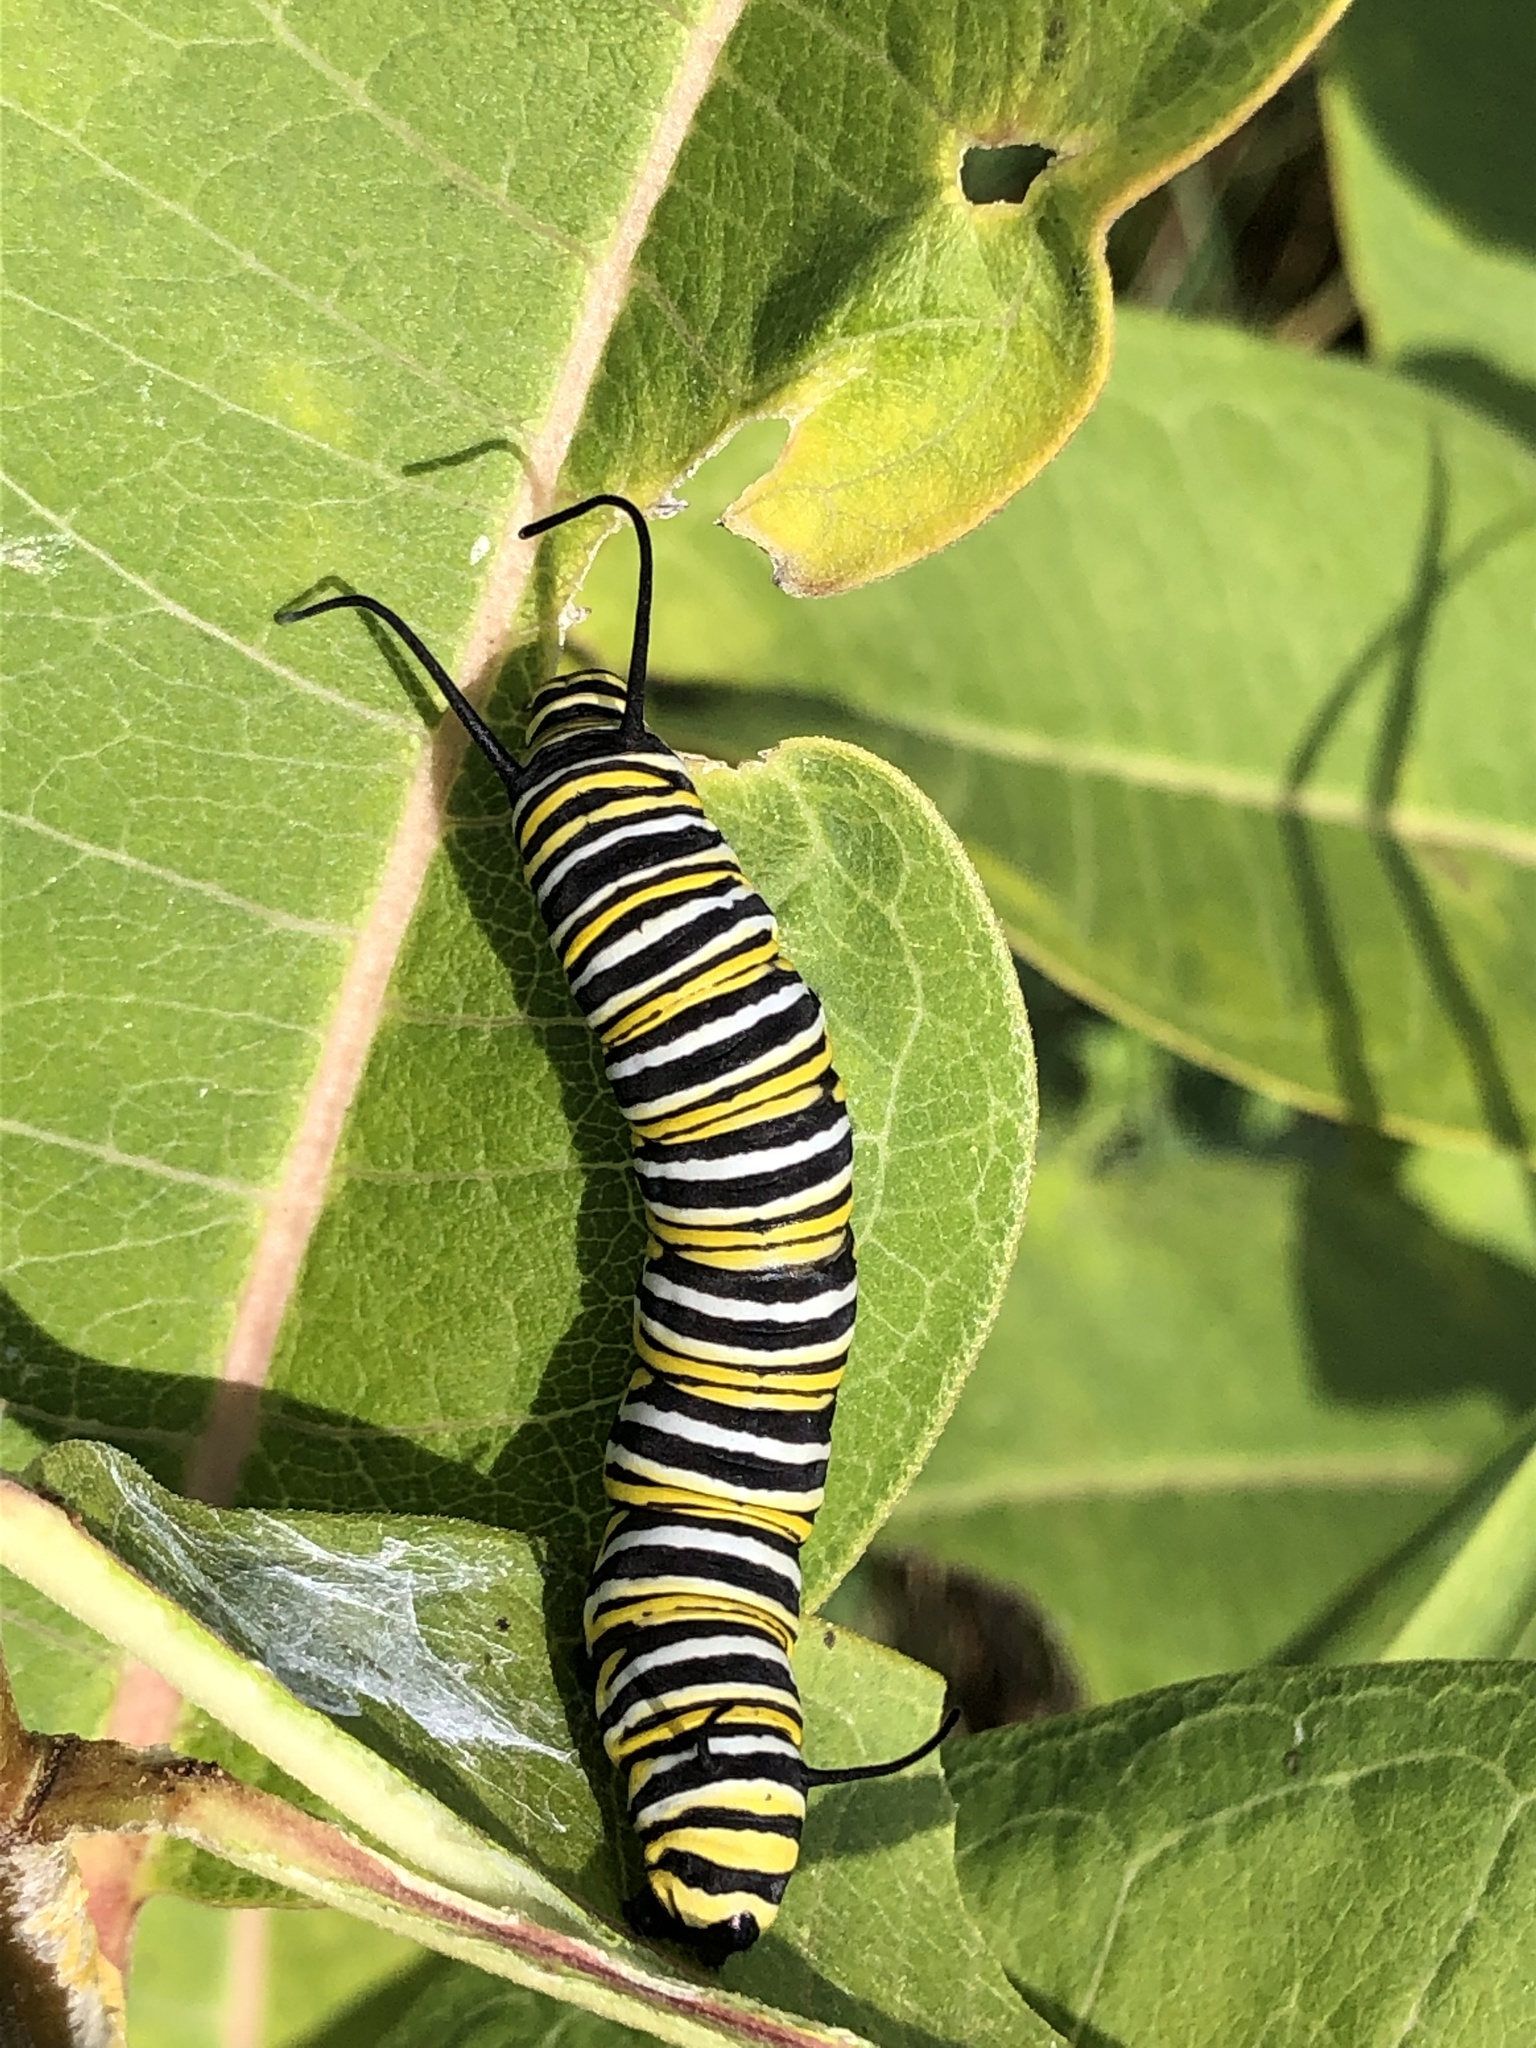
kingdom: Animalia
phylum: Arthropoda
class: Insecta
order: Lepidoptera
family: Nymphalidae
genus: Danaus
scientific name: Danaus plexippus
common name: Monarch
